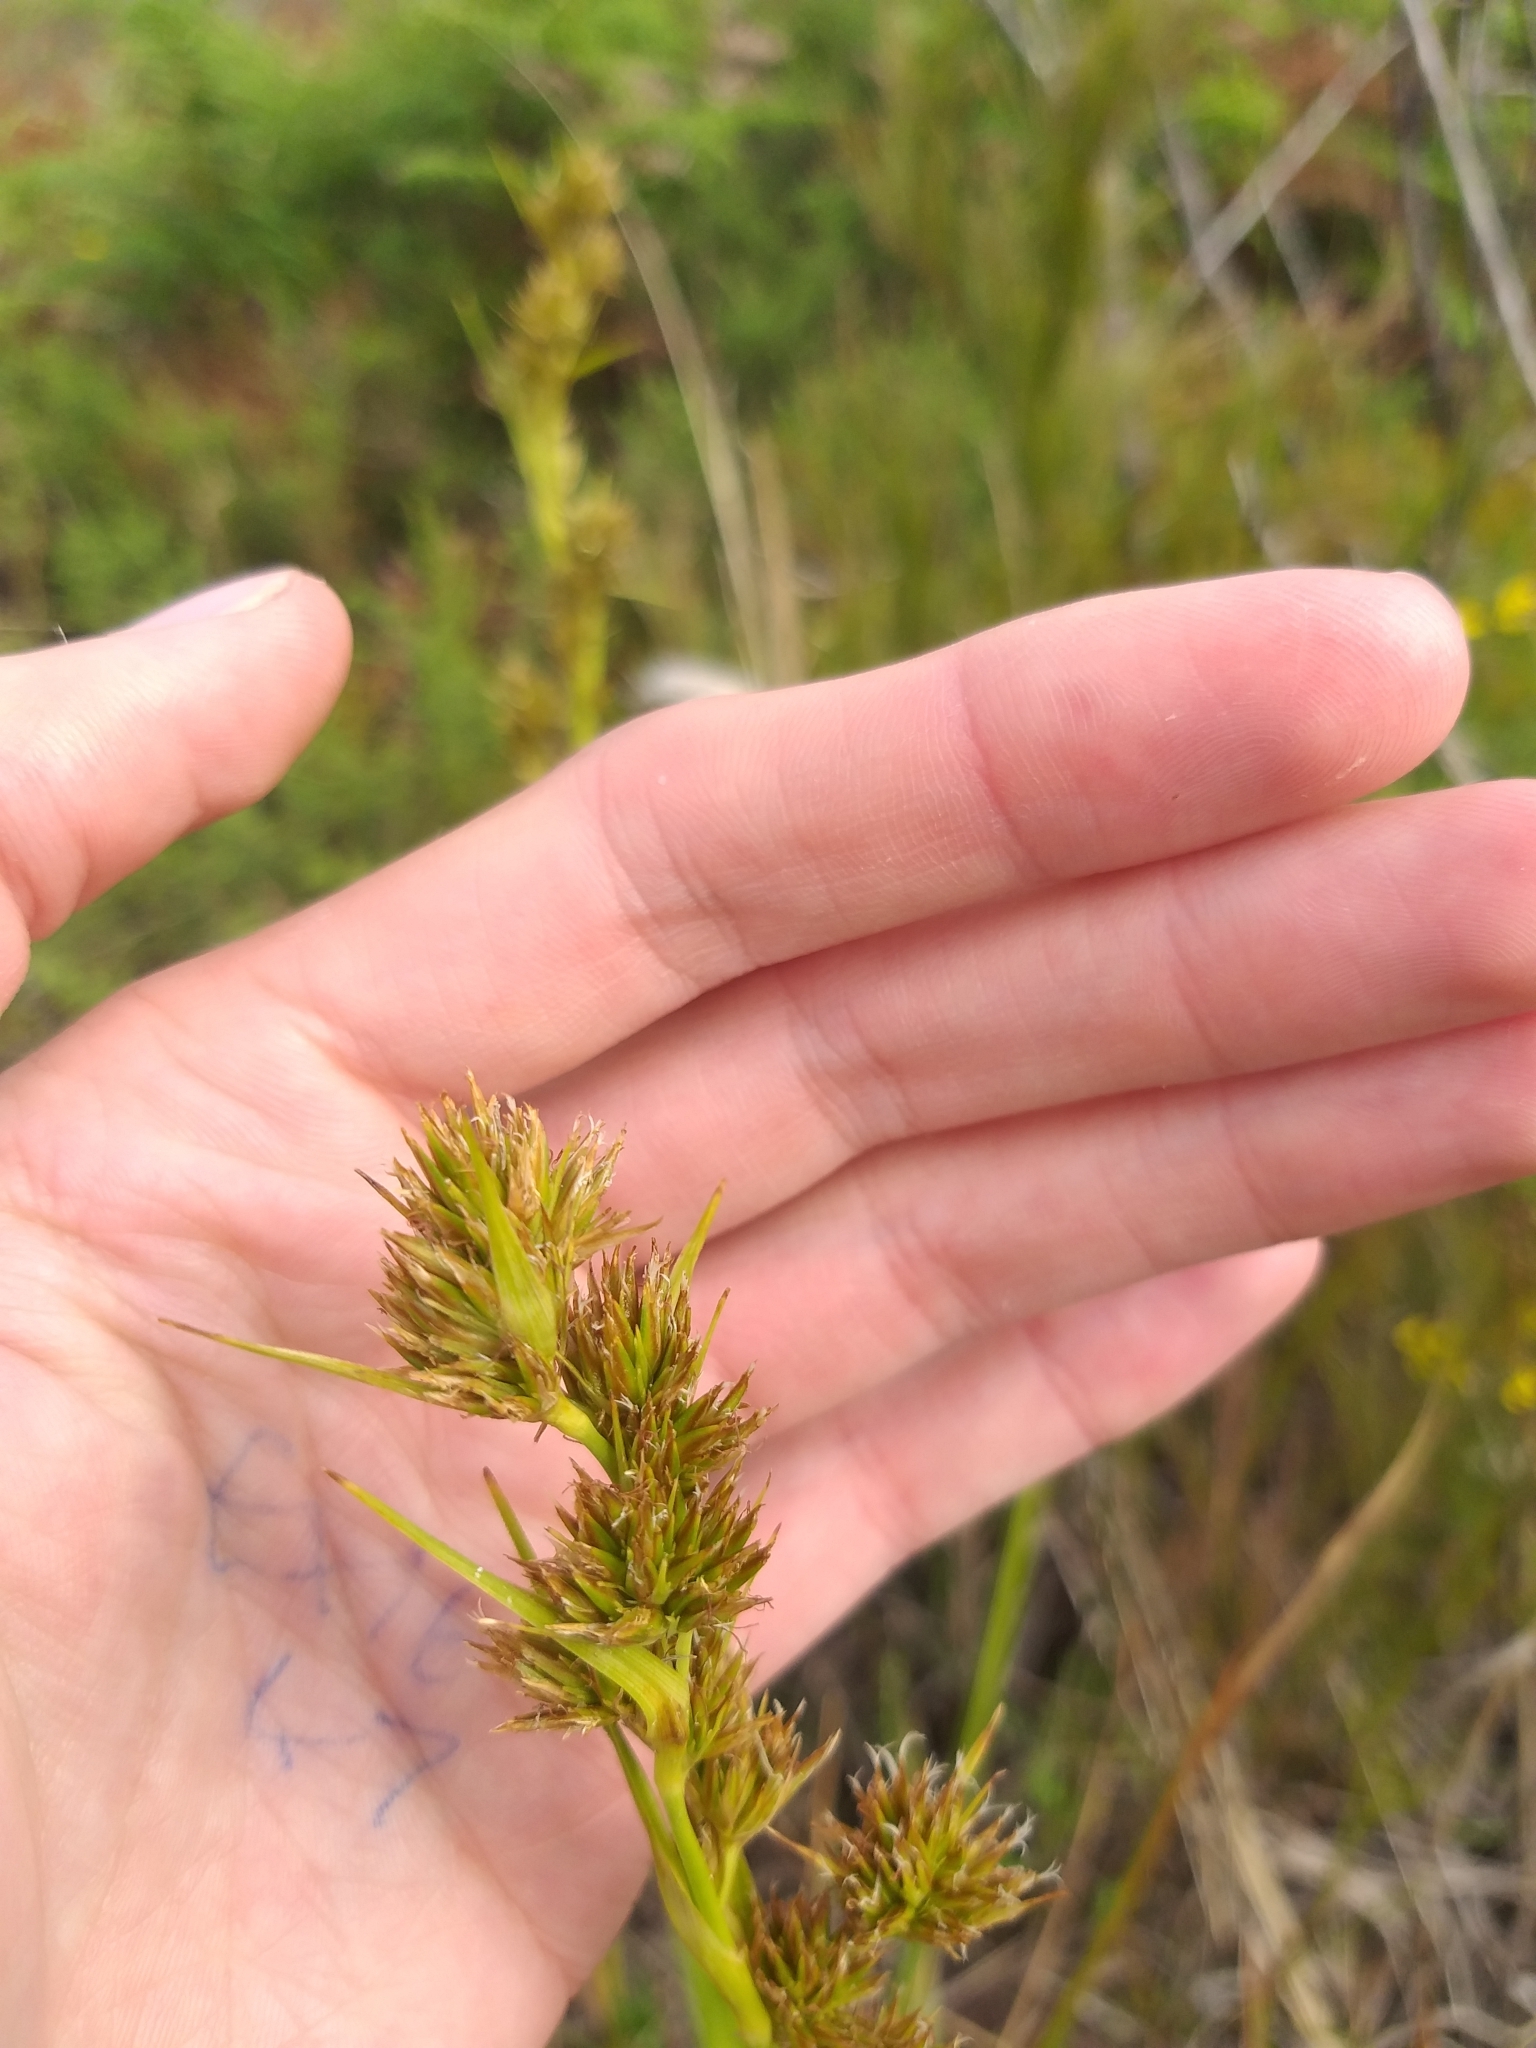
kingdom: Plantae
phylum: Tracheophyta
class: Liliopsida
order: Poales
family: Cyperaceae
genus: Carpha
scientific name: Carpha glomerata
